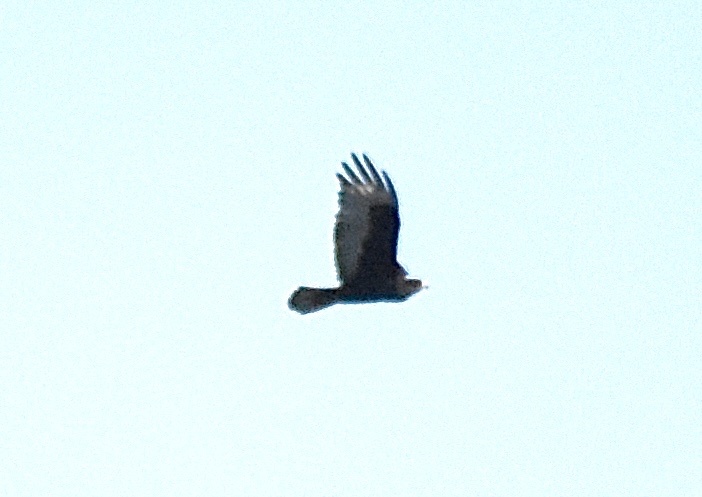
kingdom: Animalia
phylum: Chordata
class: Aves
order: Accipitriformes
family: Accipitridae
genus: Buteo
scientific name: Buteo albonotatus
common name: Zone-tailed hawk
